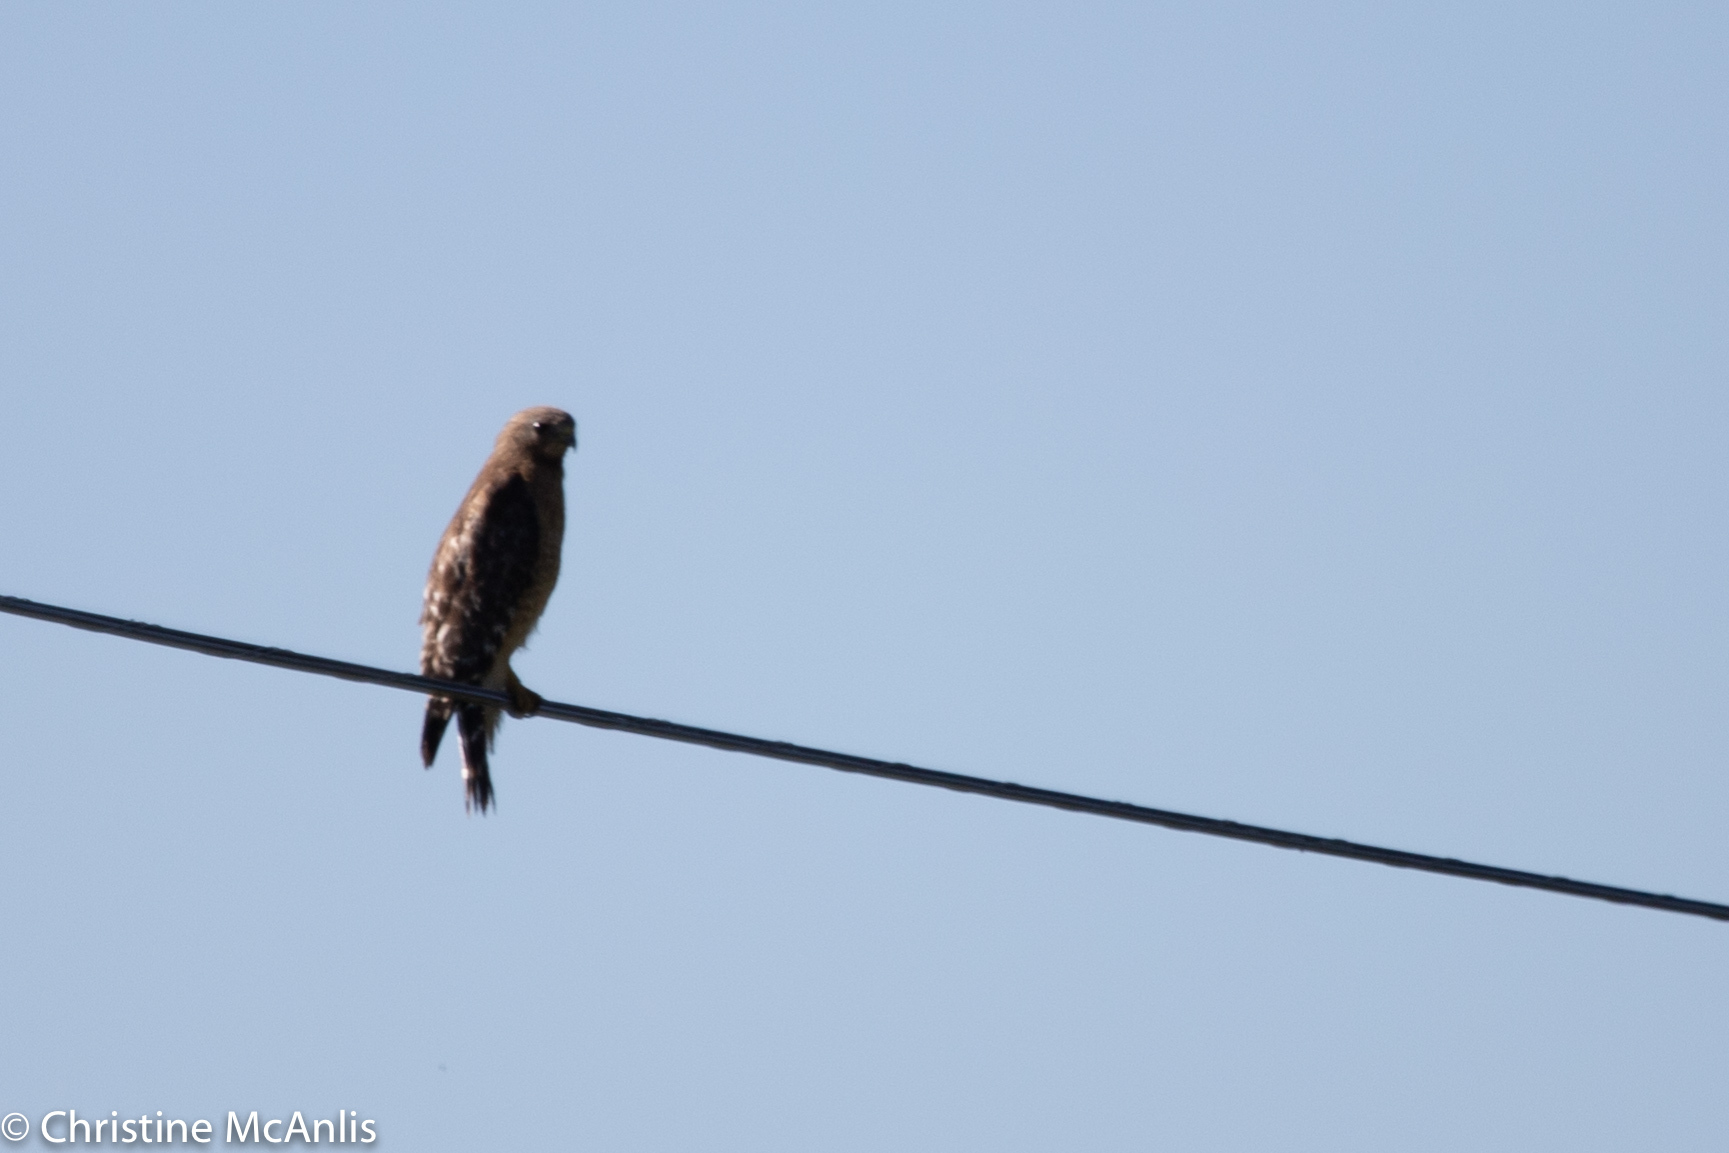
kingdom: Animalia
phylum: Chordata
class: Aves
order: Accipitriformes
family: Accipitridae
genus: Buteo
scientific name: Buteo lineatus
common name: Red-shouldered hawk
